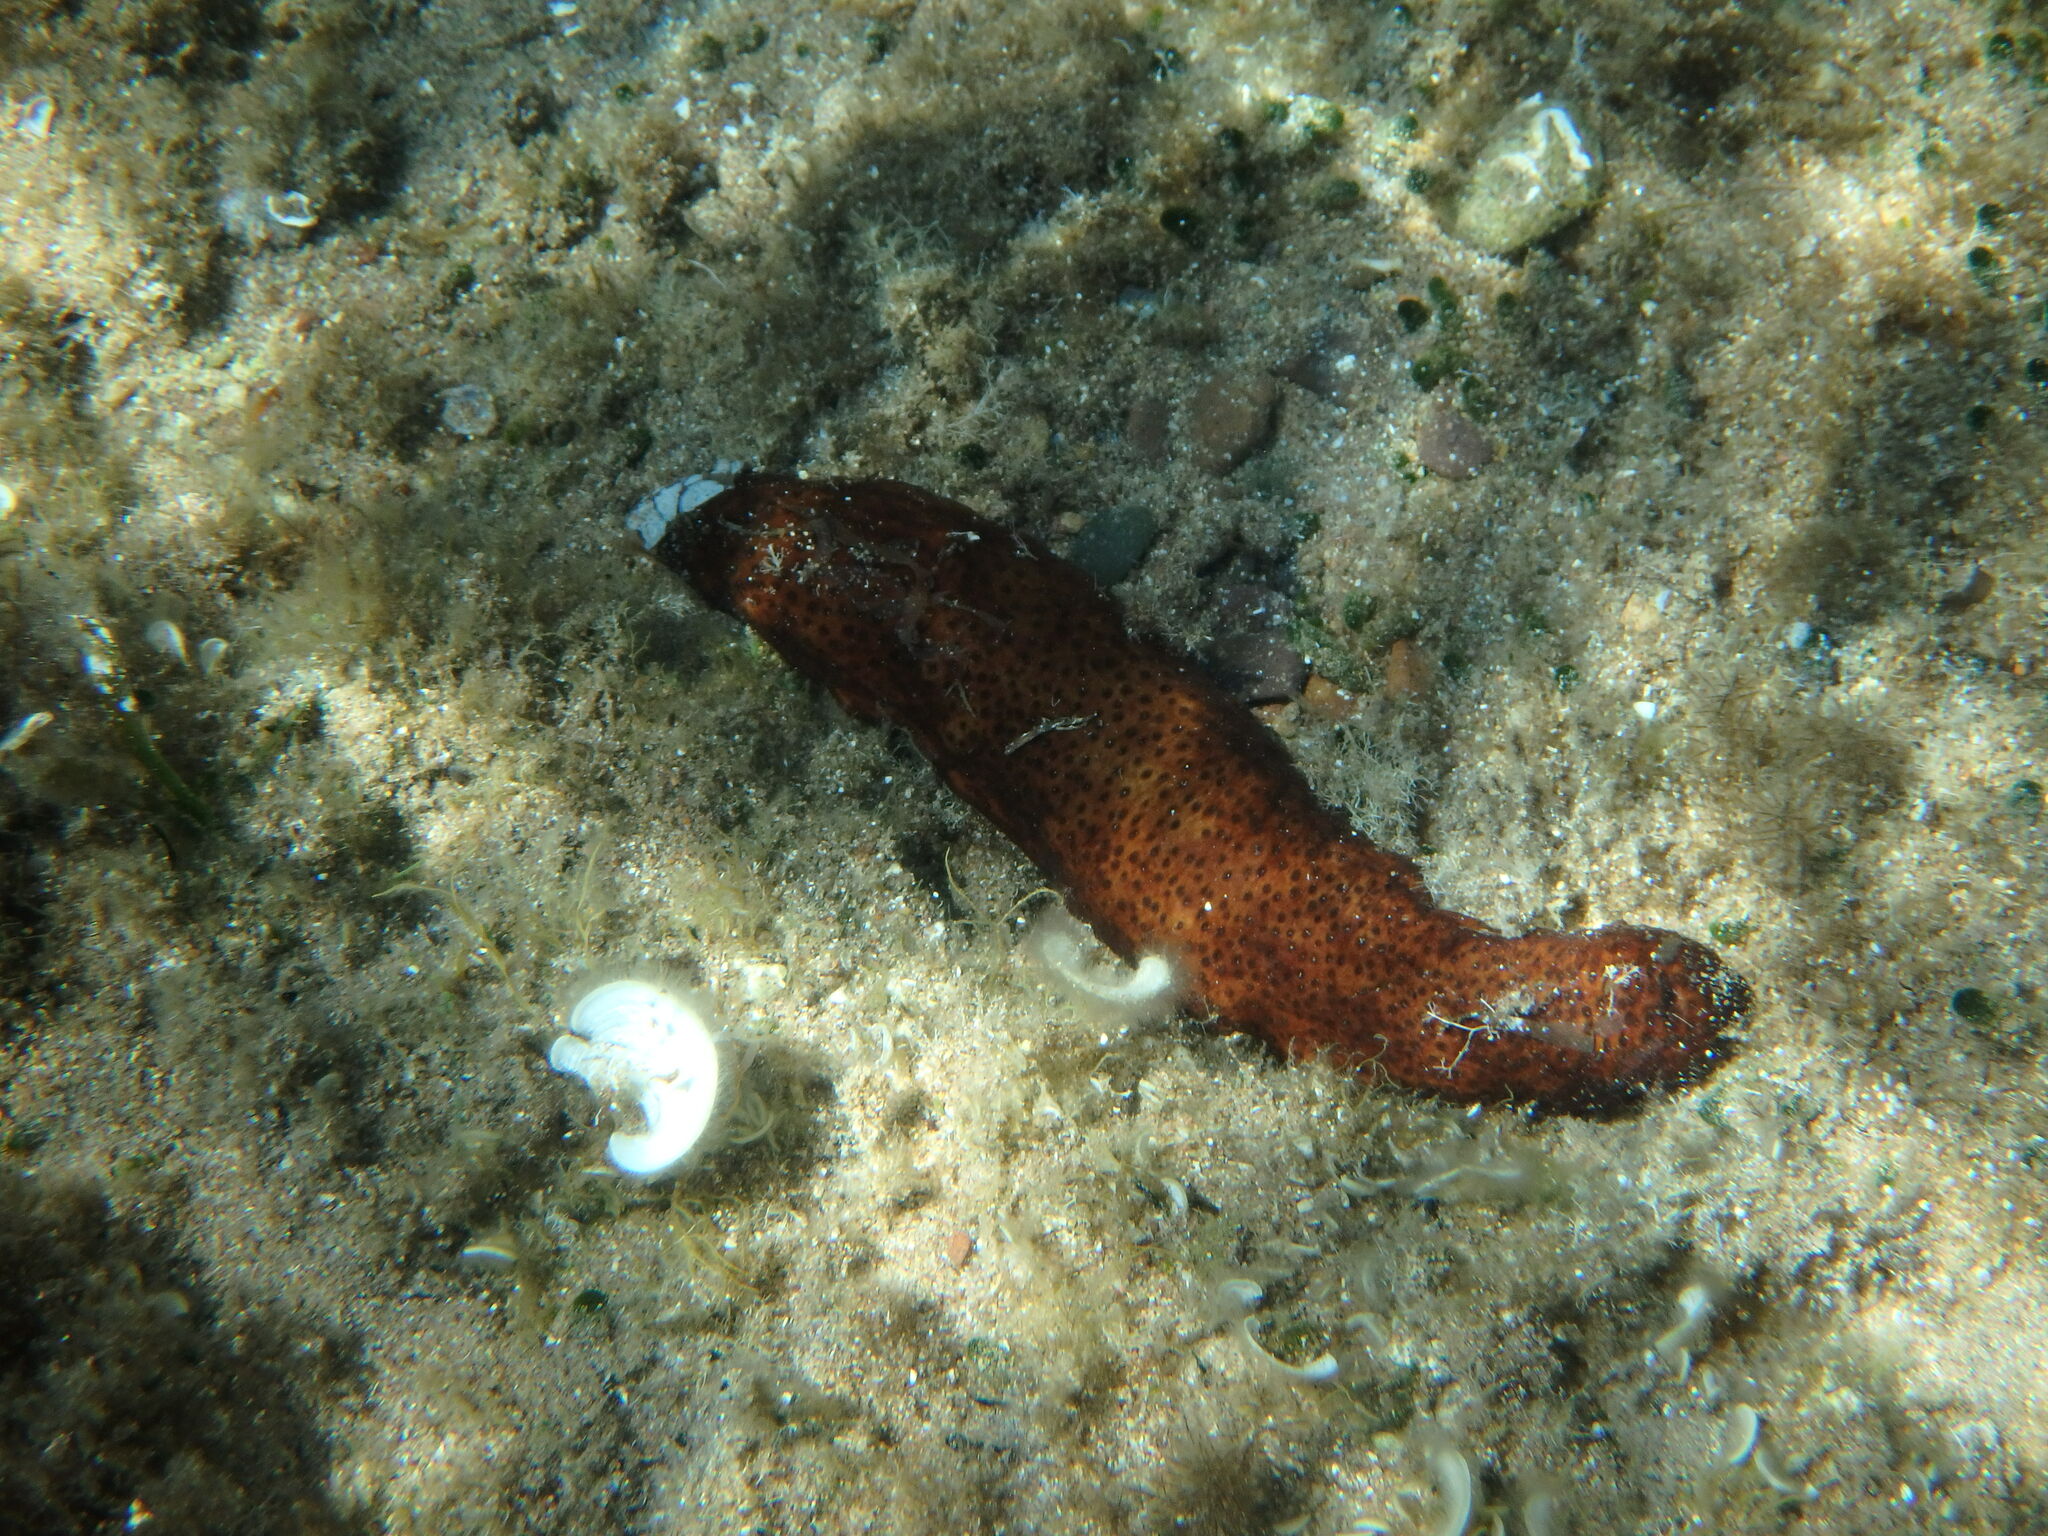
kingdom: Animalia
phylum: Echinodermata
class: Holothuroidea
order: Holothuriida
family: Holothuriidae
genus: Holothuria
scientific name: Holothuria poli
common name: White spot cucumber
